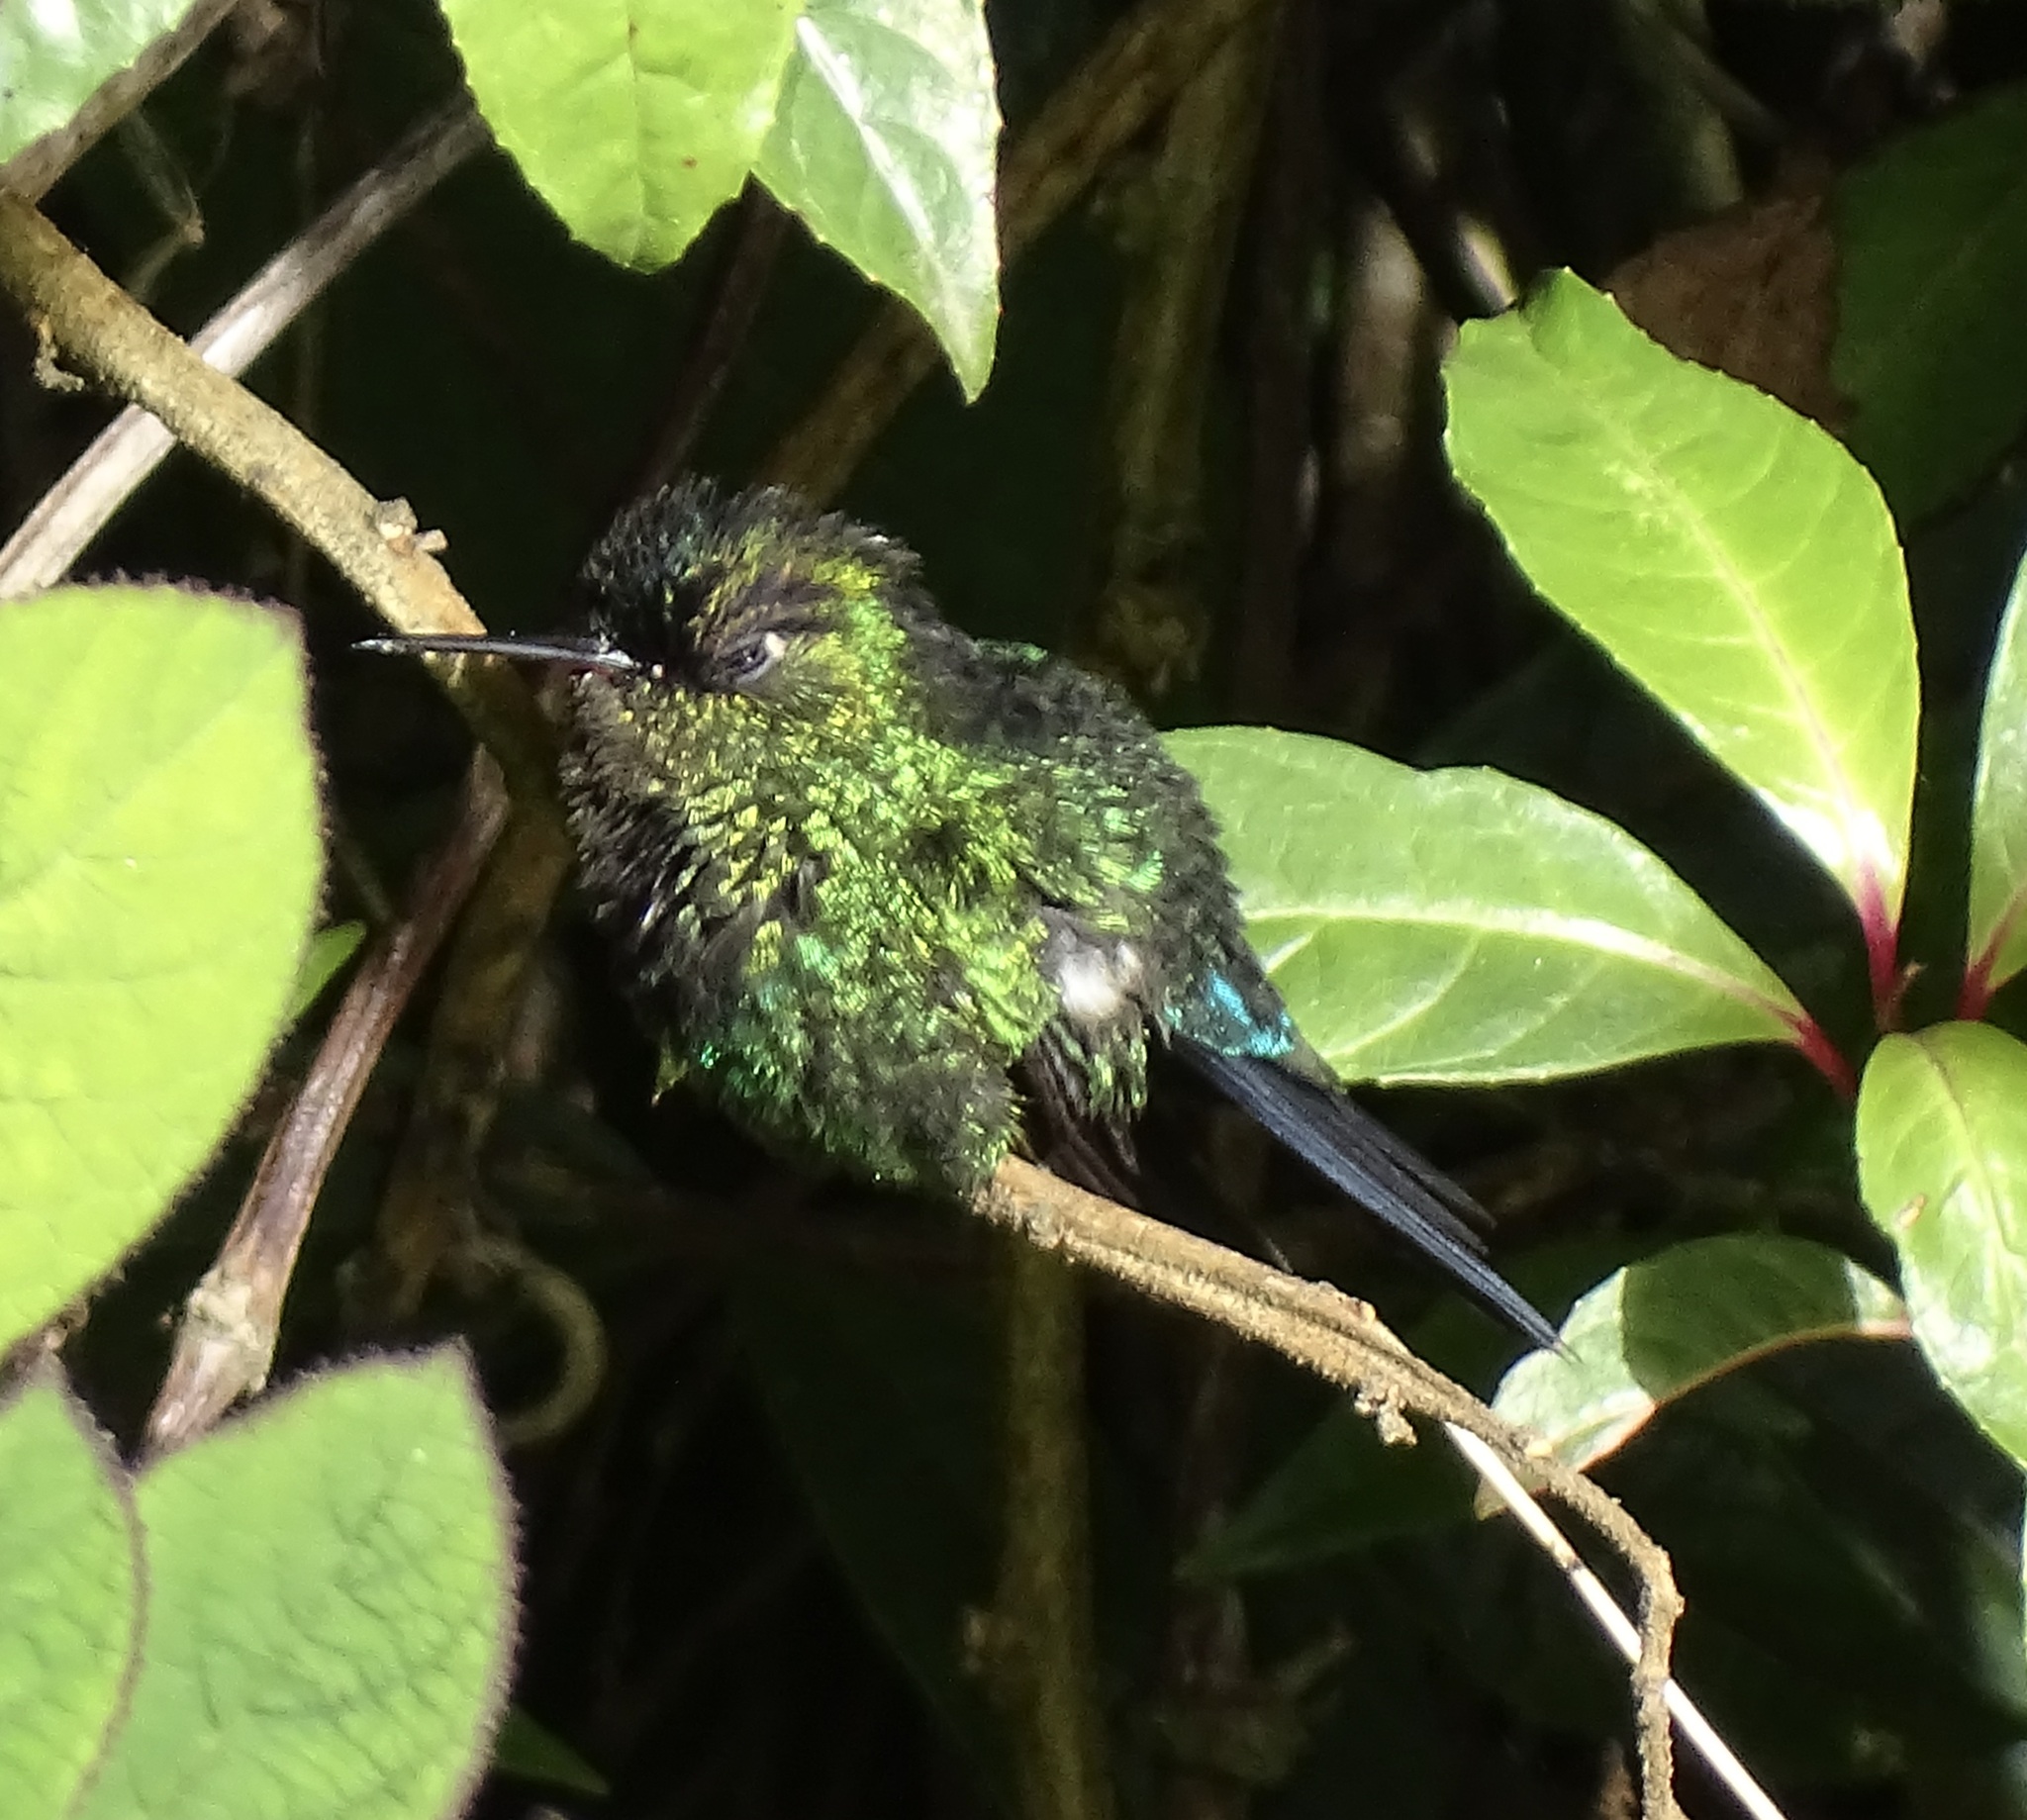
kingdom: Animalia
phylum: Chordata
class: Aves
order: Apodiformes
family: Trochilidae
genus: Panterpe
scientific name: Panterpe insignis
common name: Fiery-throated hummingbird
